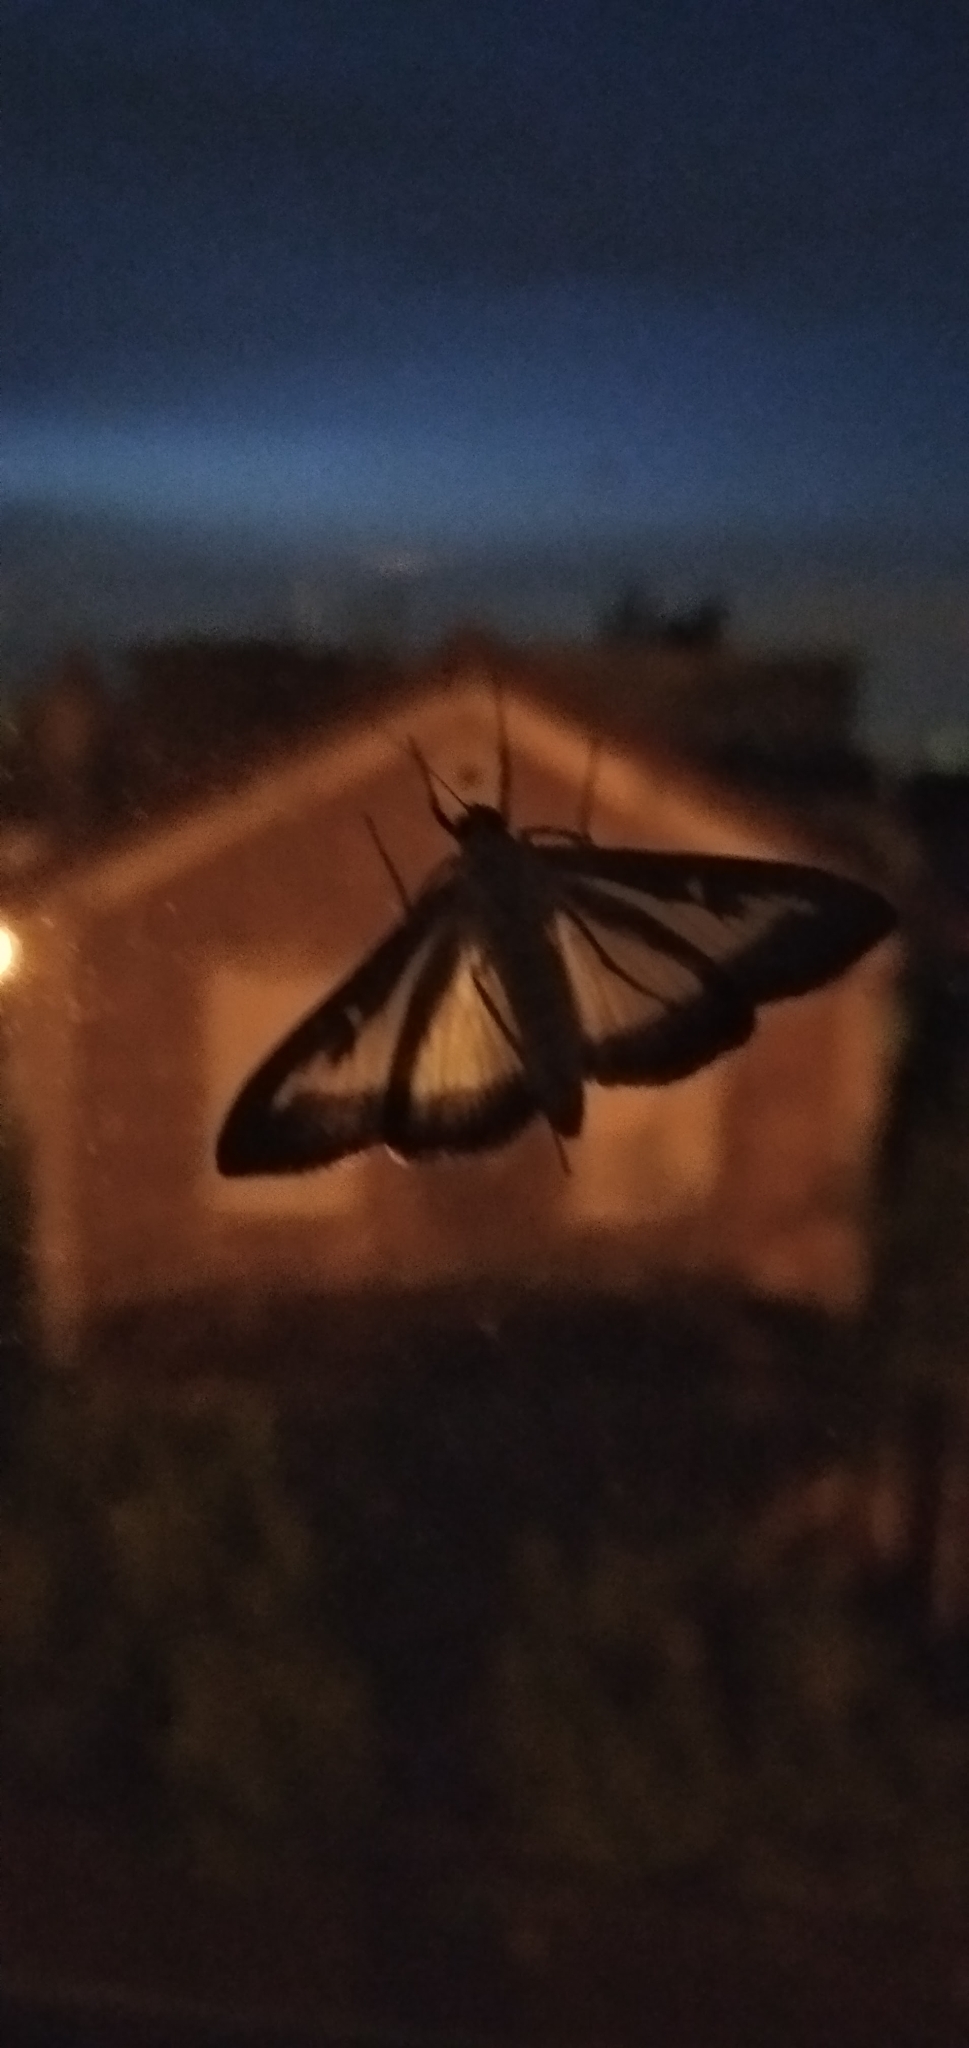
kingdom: Animalia
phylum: Arthropoda
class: Insecta
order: Lepidoptera
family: Crambidae
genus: Cydalima
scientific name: Cydalima perspectalis
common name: Box tree moth
